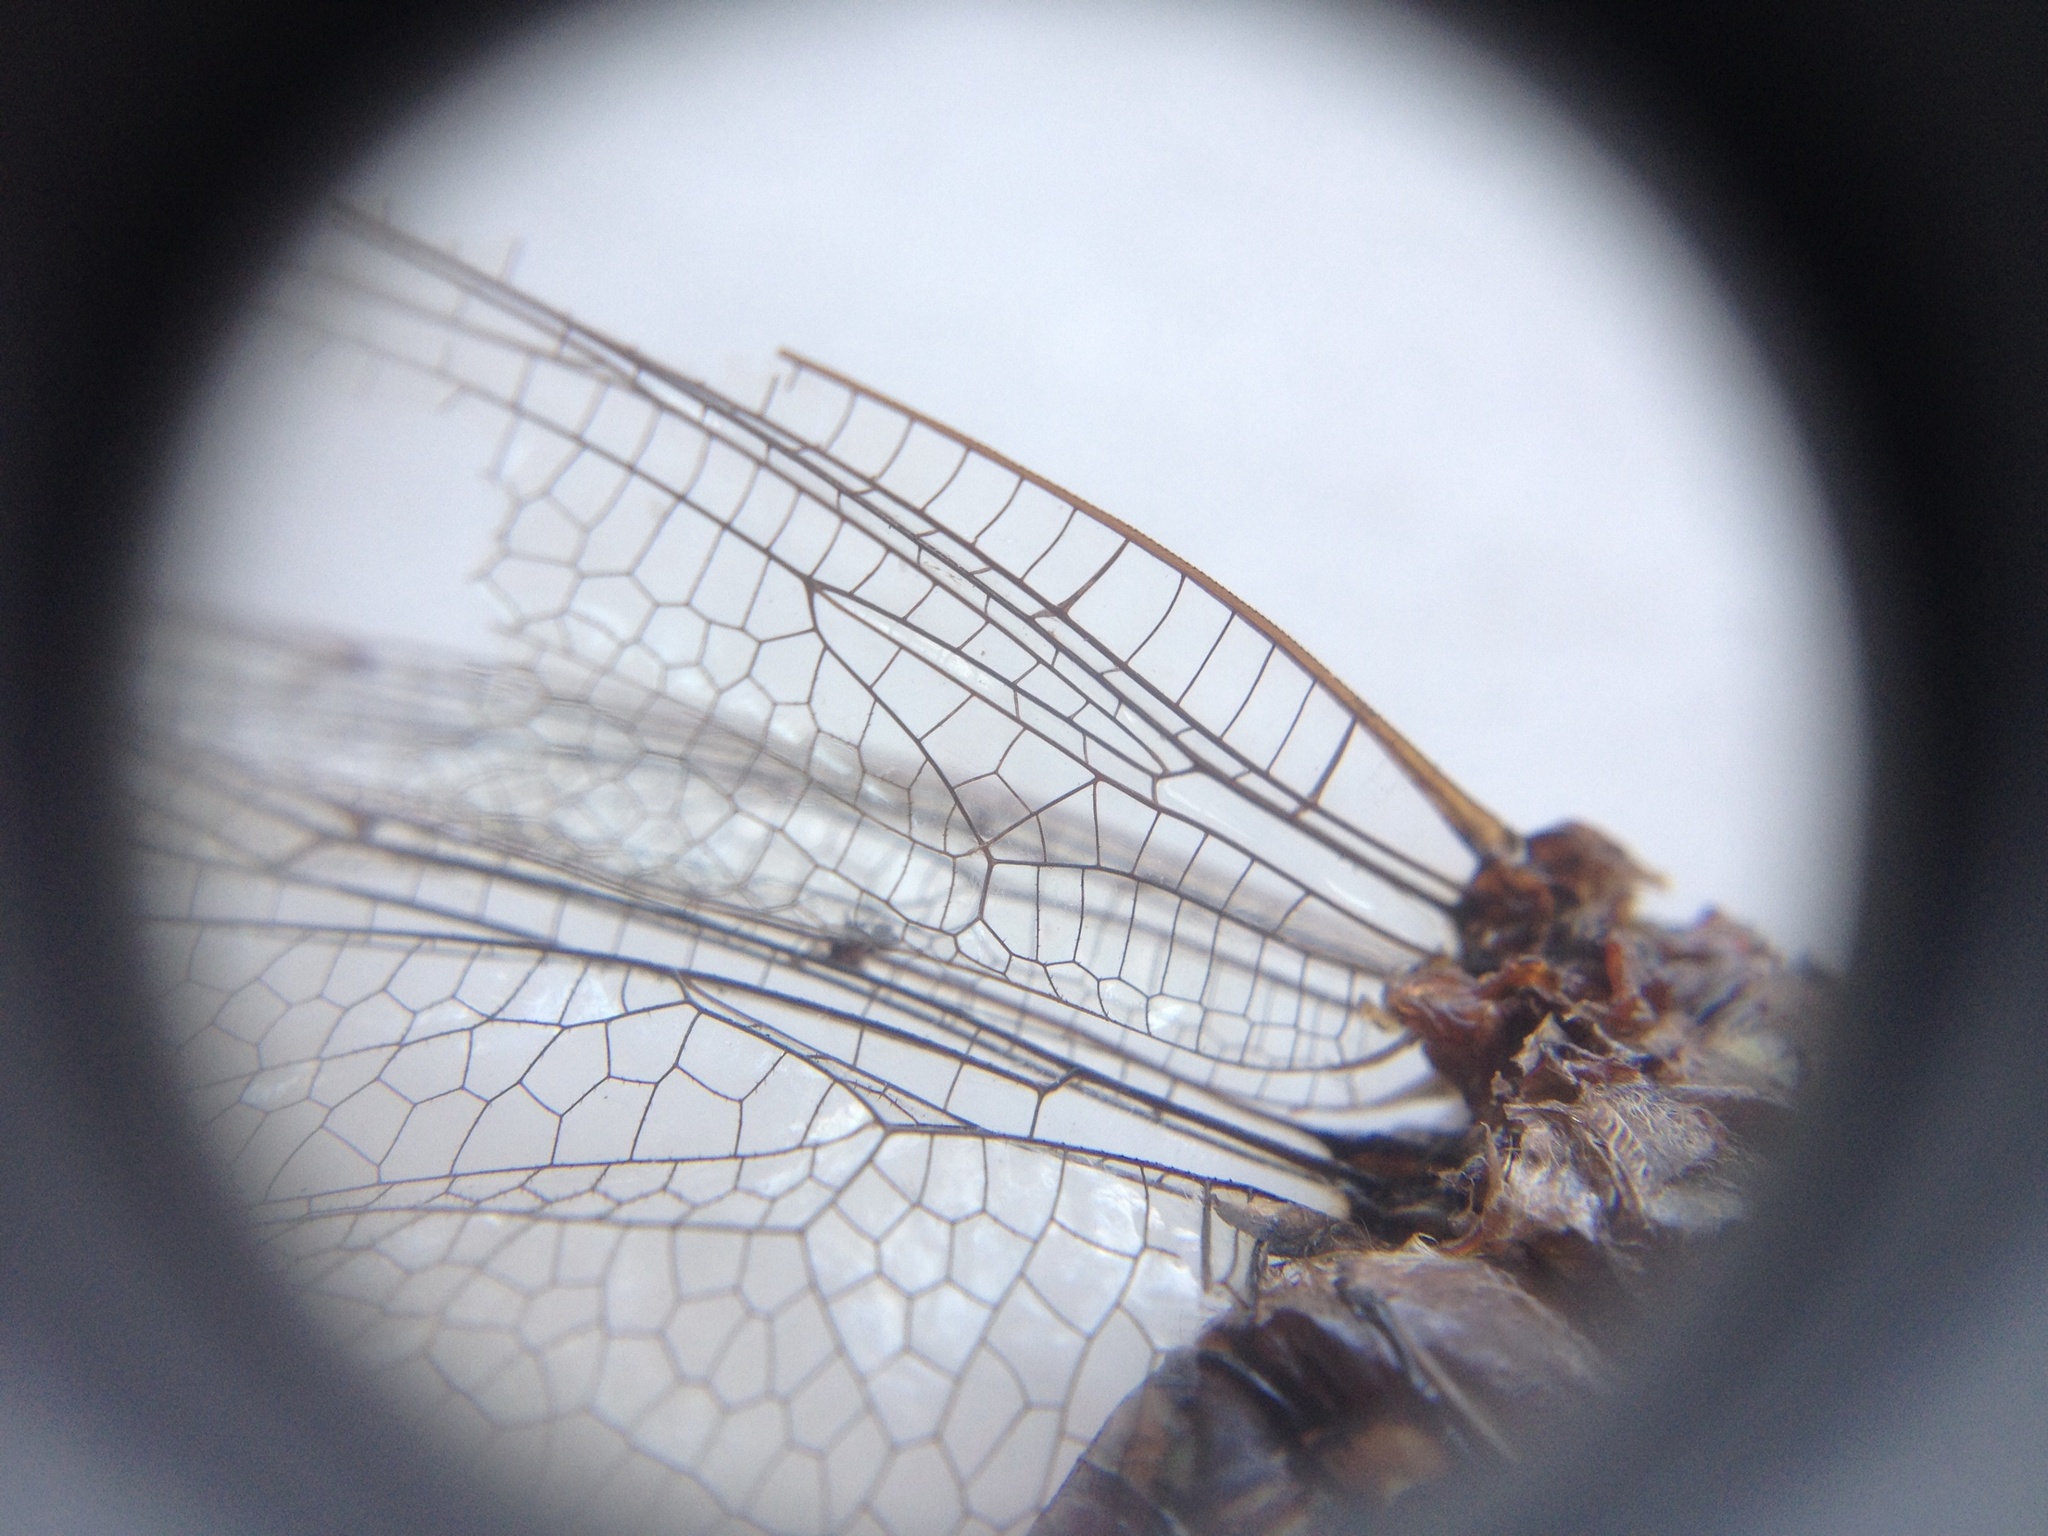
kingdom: Animalia
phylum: Arthropoda
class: Insecta
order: Odonata
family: Aeshnidae
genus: Aeshna
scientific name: Aeshna brevistyla
